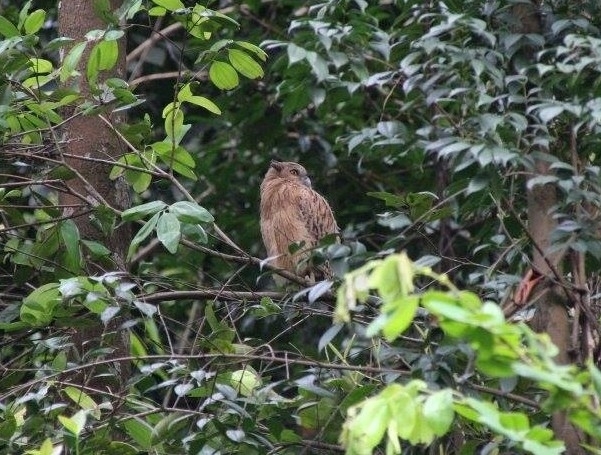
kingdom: Animalia
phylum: Chordata
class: Aves
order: Strigiformes
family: Strigidae
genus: Ketupa
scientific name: Ketupa ketupu
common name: Buffy fish-owl
